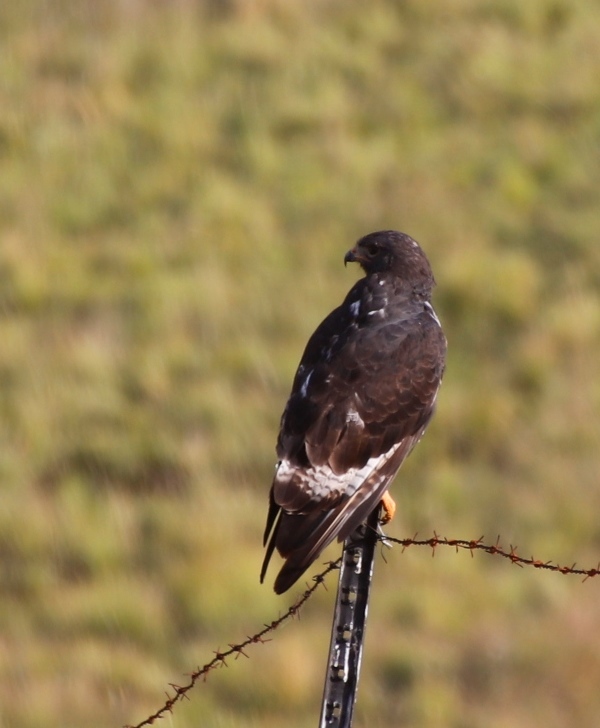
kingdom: Animalia
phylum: Chordata
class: Aves
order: Accipitriformes
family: Accipitridae
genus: Buteo
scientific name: Buteo rufofuscus
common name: Jackal buzzard
